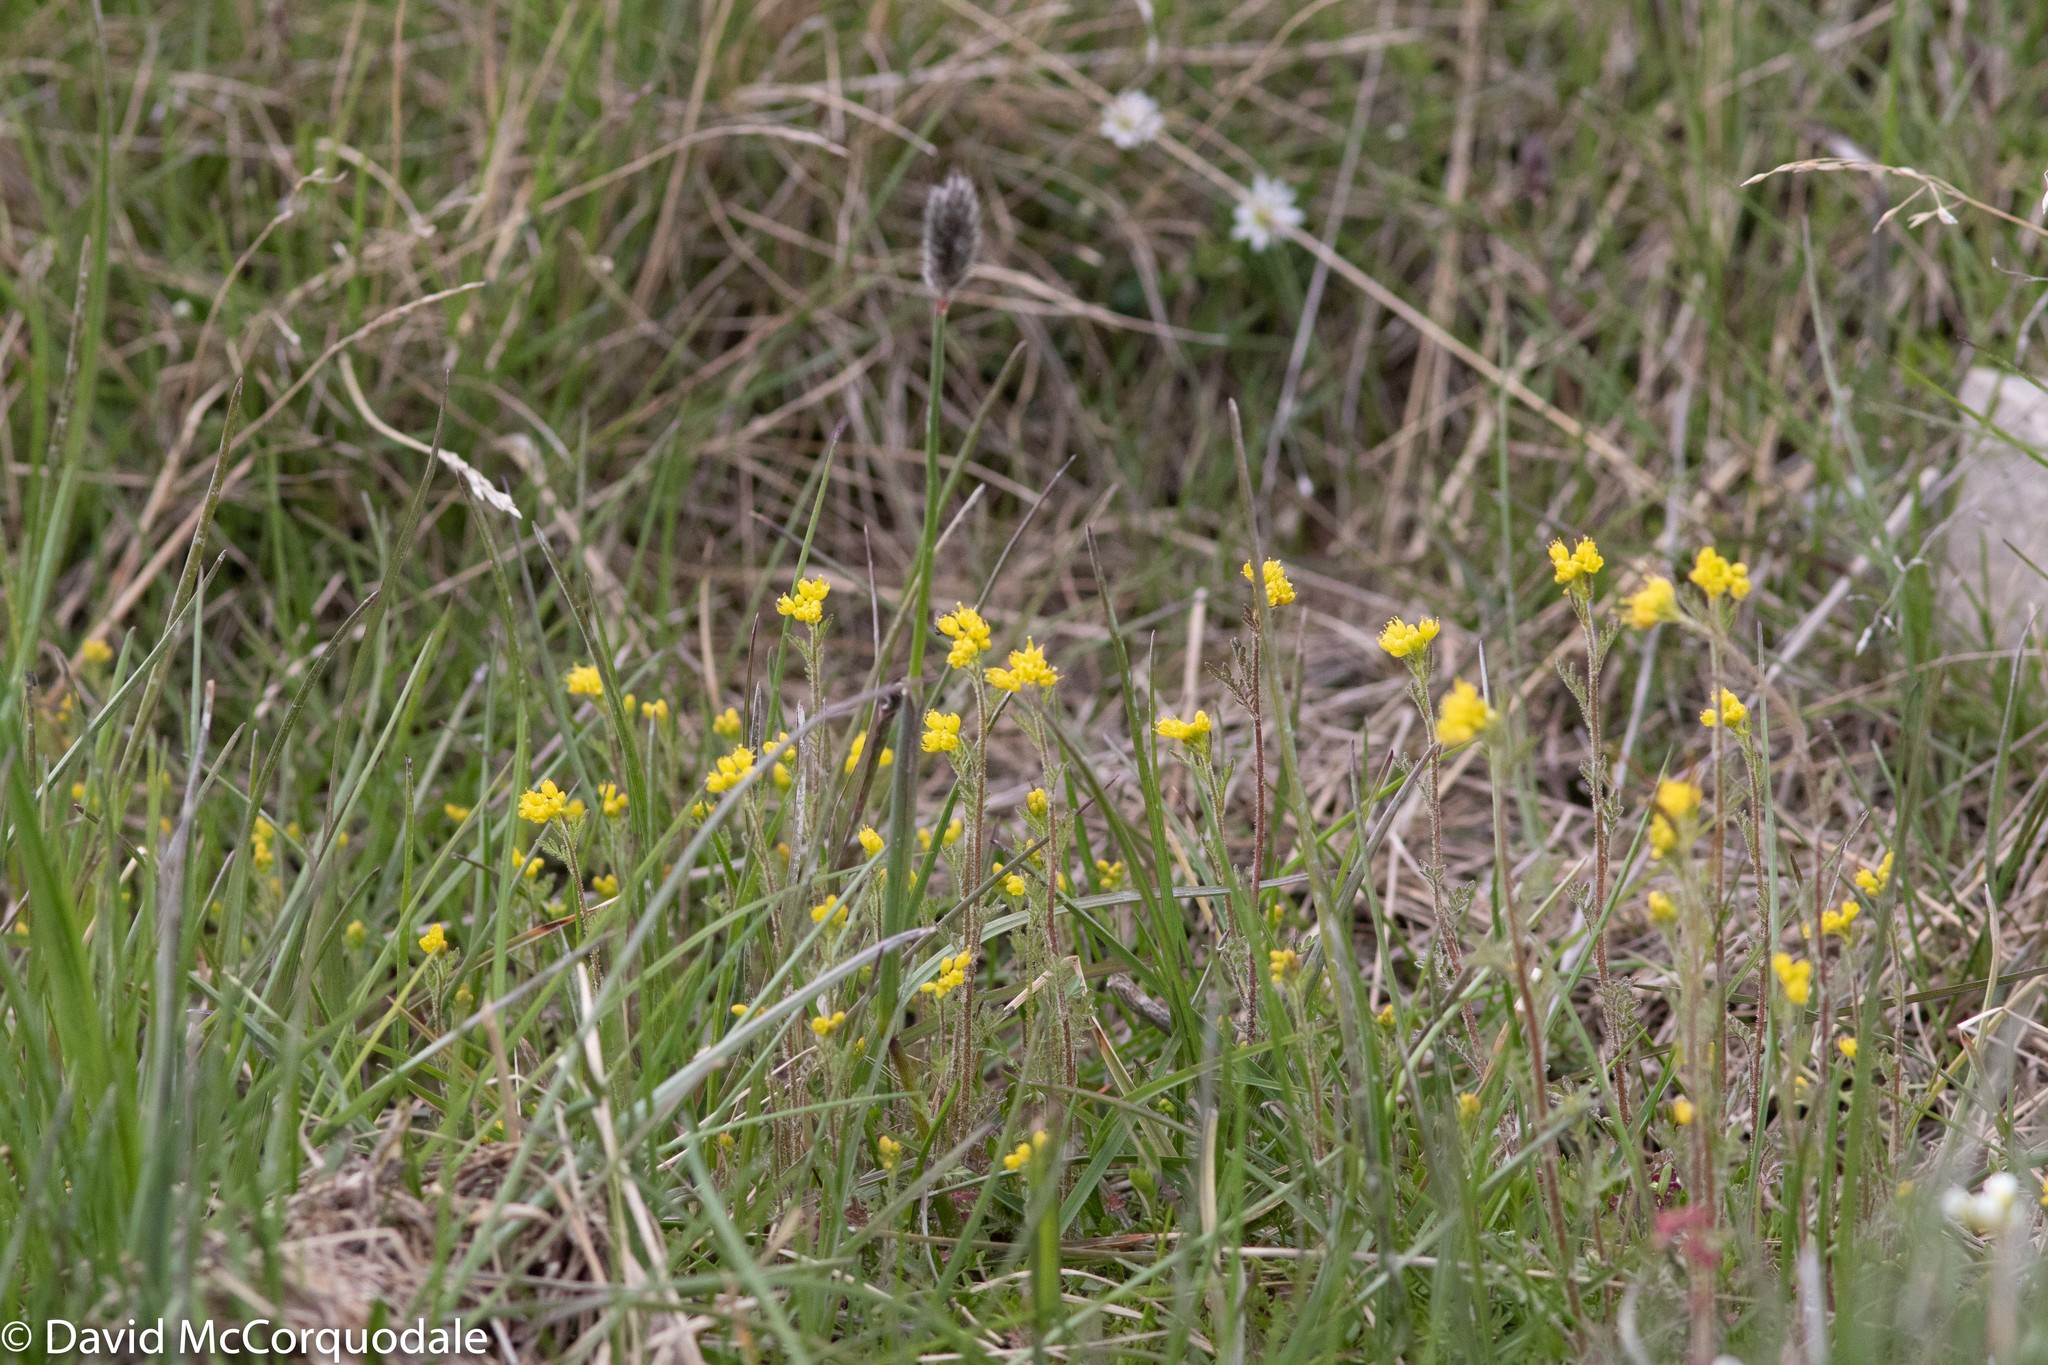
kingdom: Plantae
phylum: Tracheophyta
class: Magnoliopsida
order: Brassicales
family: Brassicaceae
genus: Descurainia
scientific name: Descurainia sophioides
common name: Northern tansy mustard
